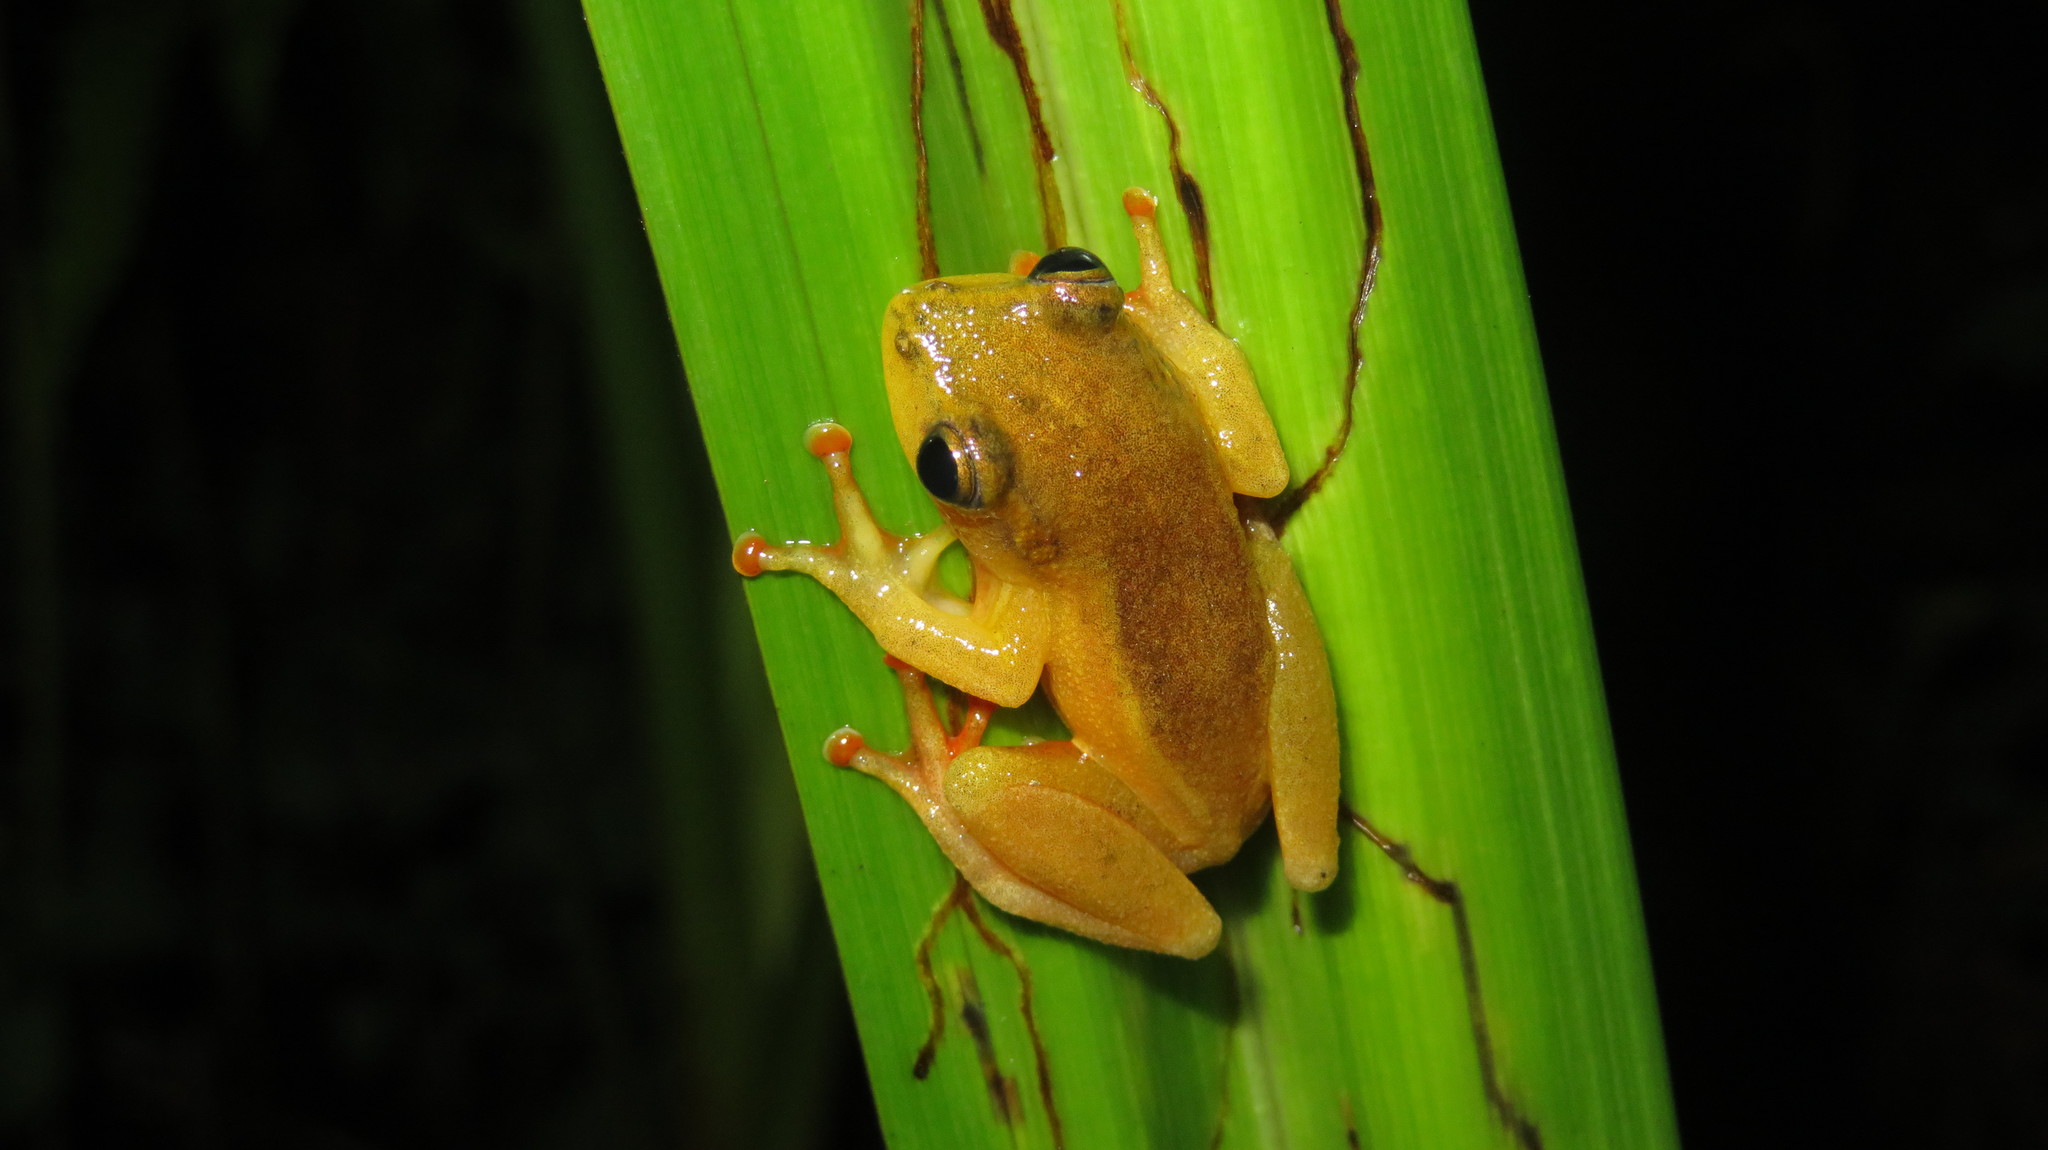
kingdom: Animalia
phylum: Chordata
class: Amphibia
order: Anura
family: Hyperoliidae
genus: Hyperolius
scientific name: Hyperolius substriatus
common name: Spotted reed frog
